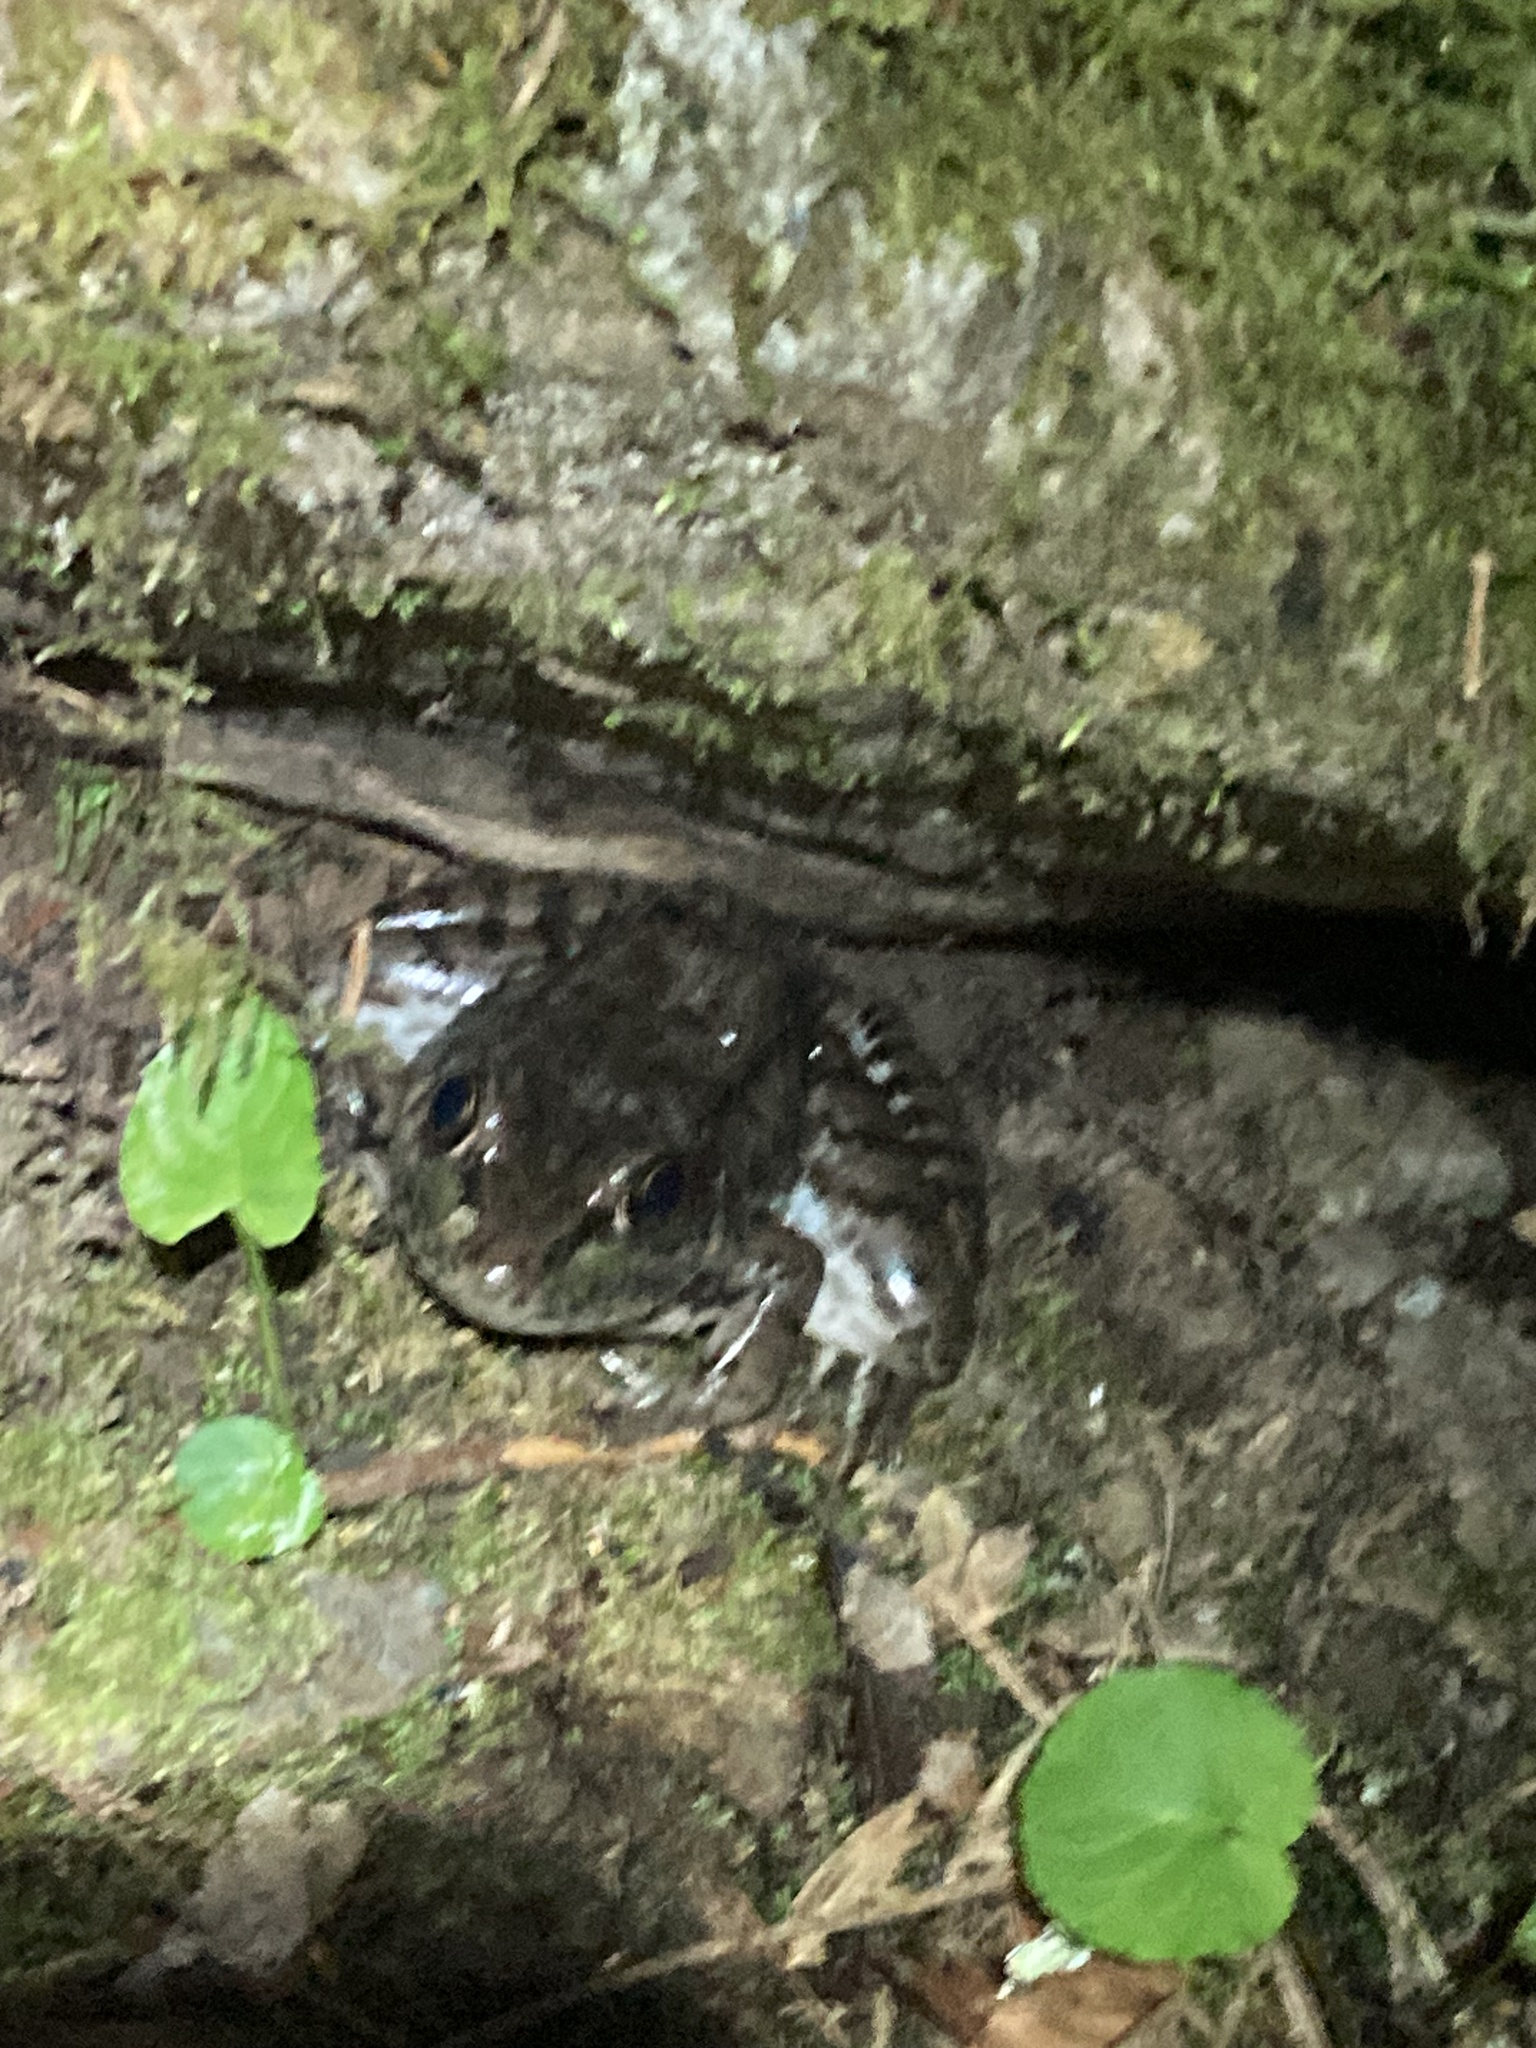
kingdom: Animalia
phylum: Chordata
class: Amphibia
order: Anura
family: Ranidae
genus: Lithobates
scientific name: Lithobates clamitans
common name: Green frog
